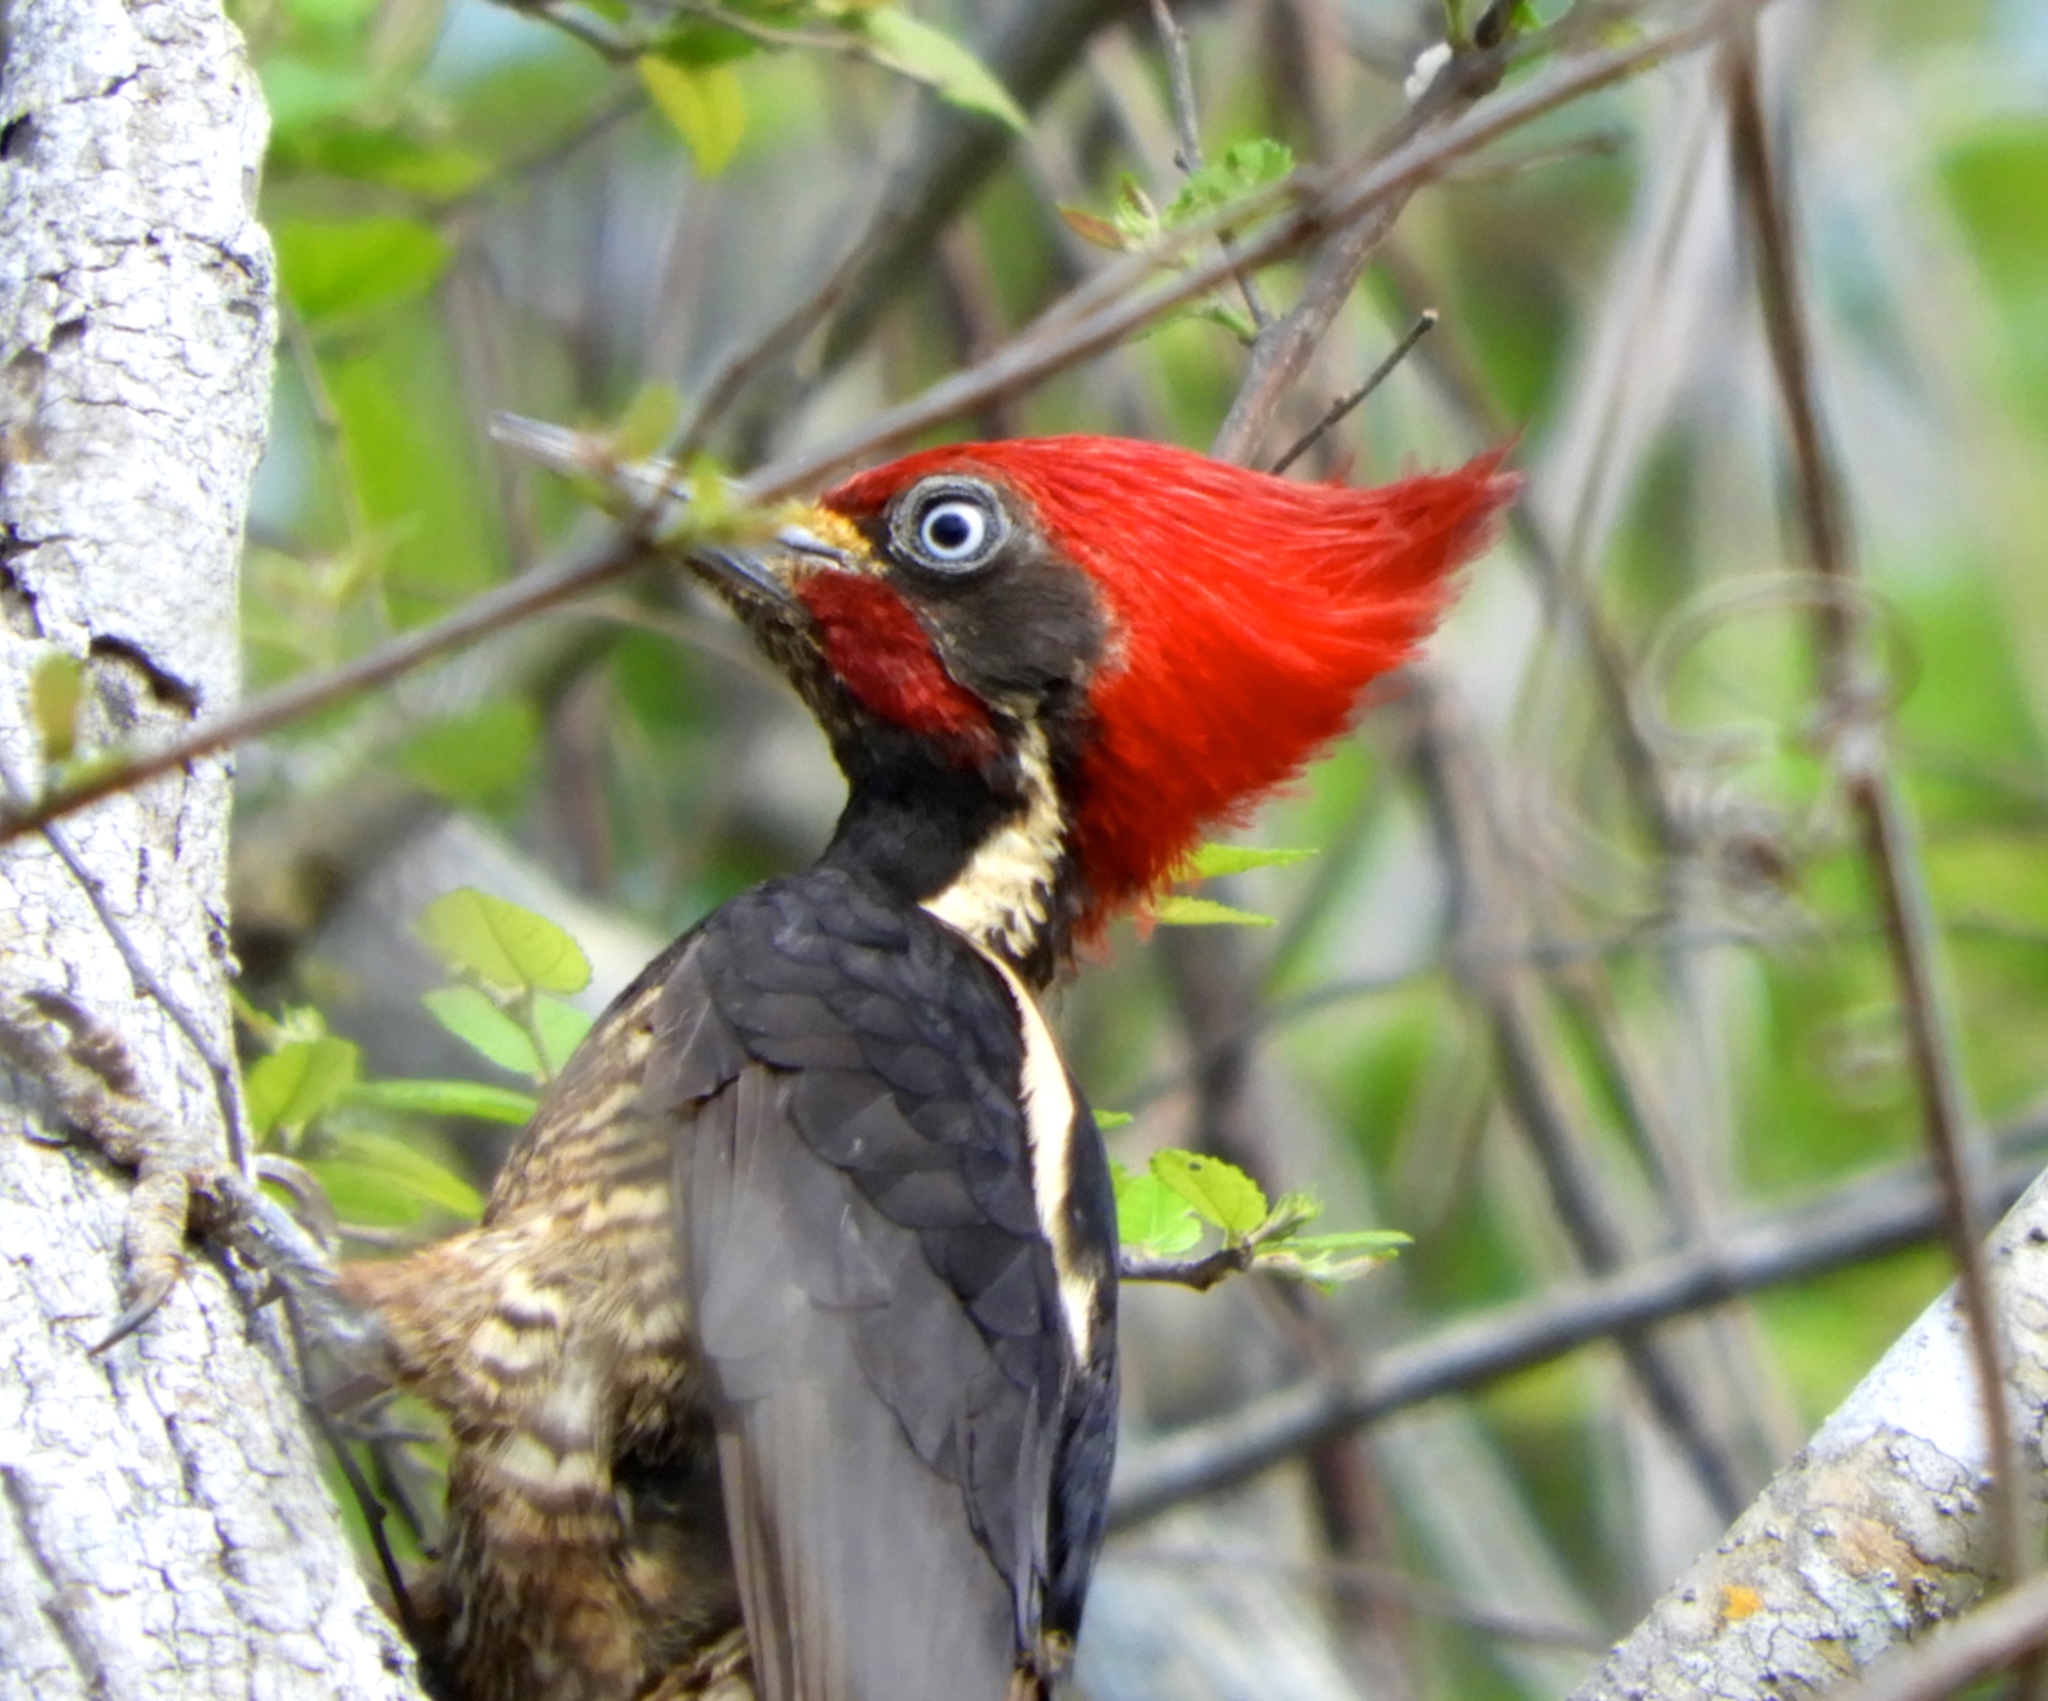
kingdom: Animalia
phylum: Chordata
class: Aves
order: Piciformes
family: Picidae
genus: Dryocopus
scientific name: Dryocopus lineatus
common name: Lineated woodpecker
